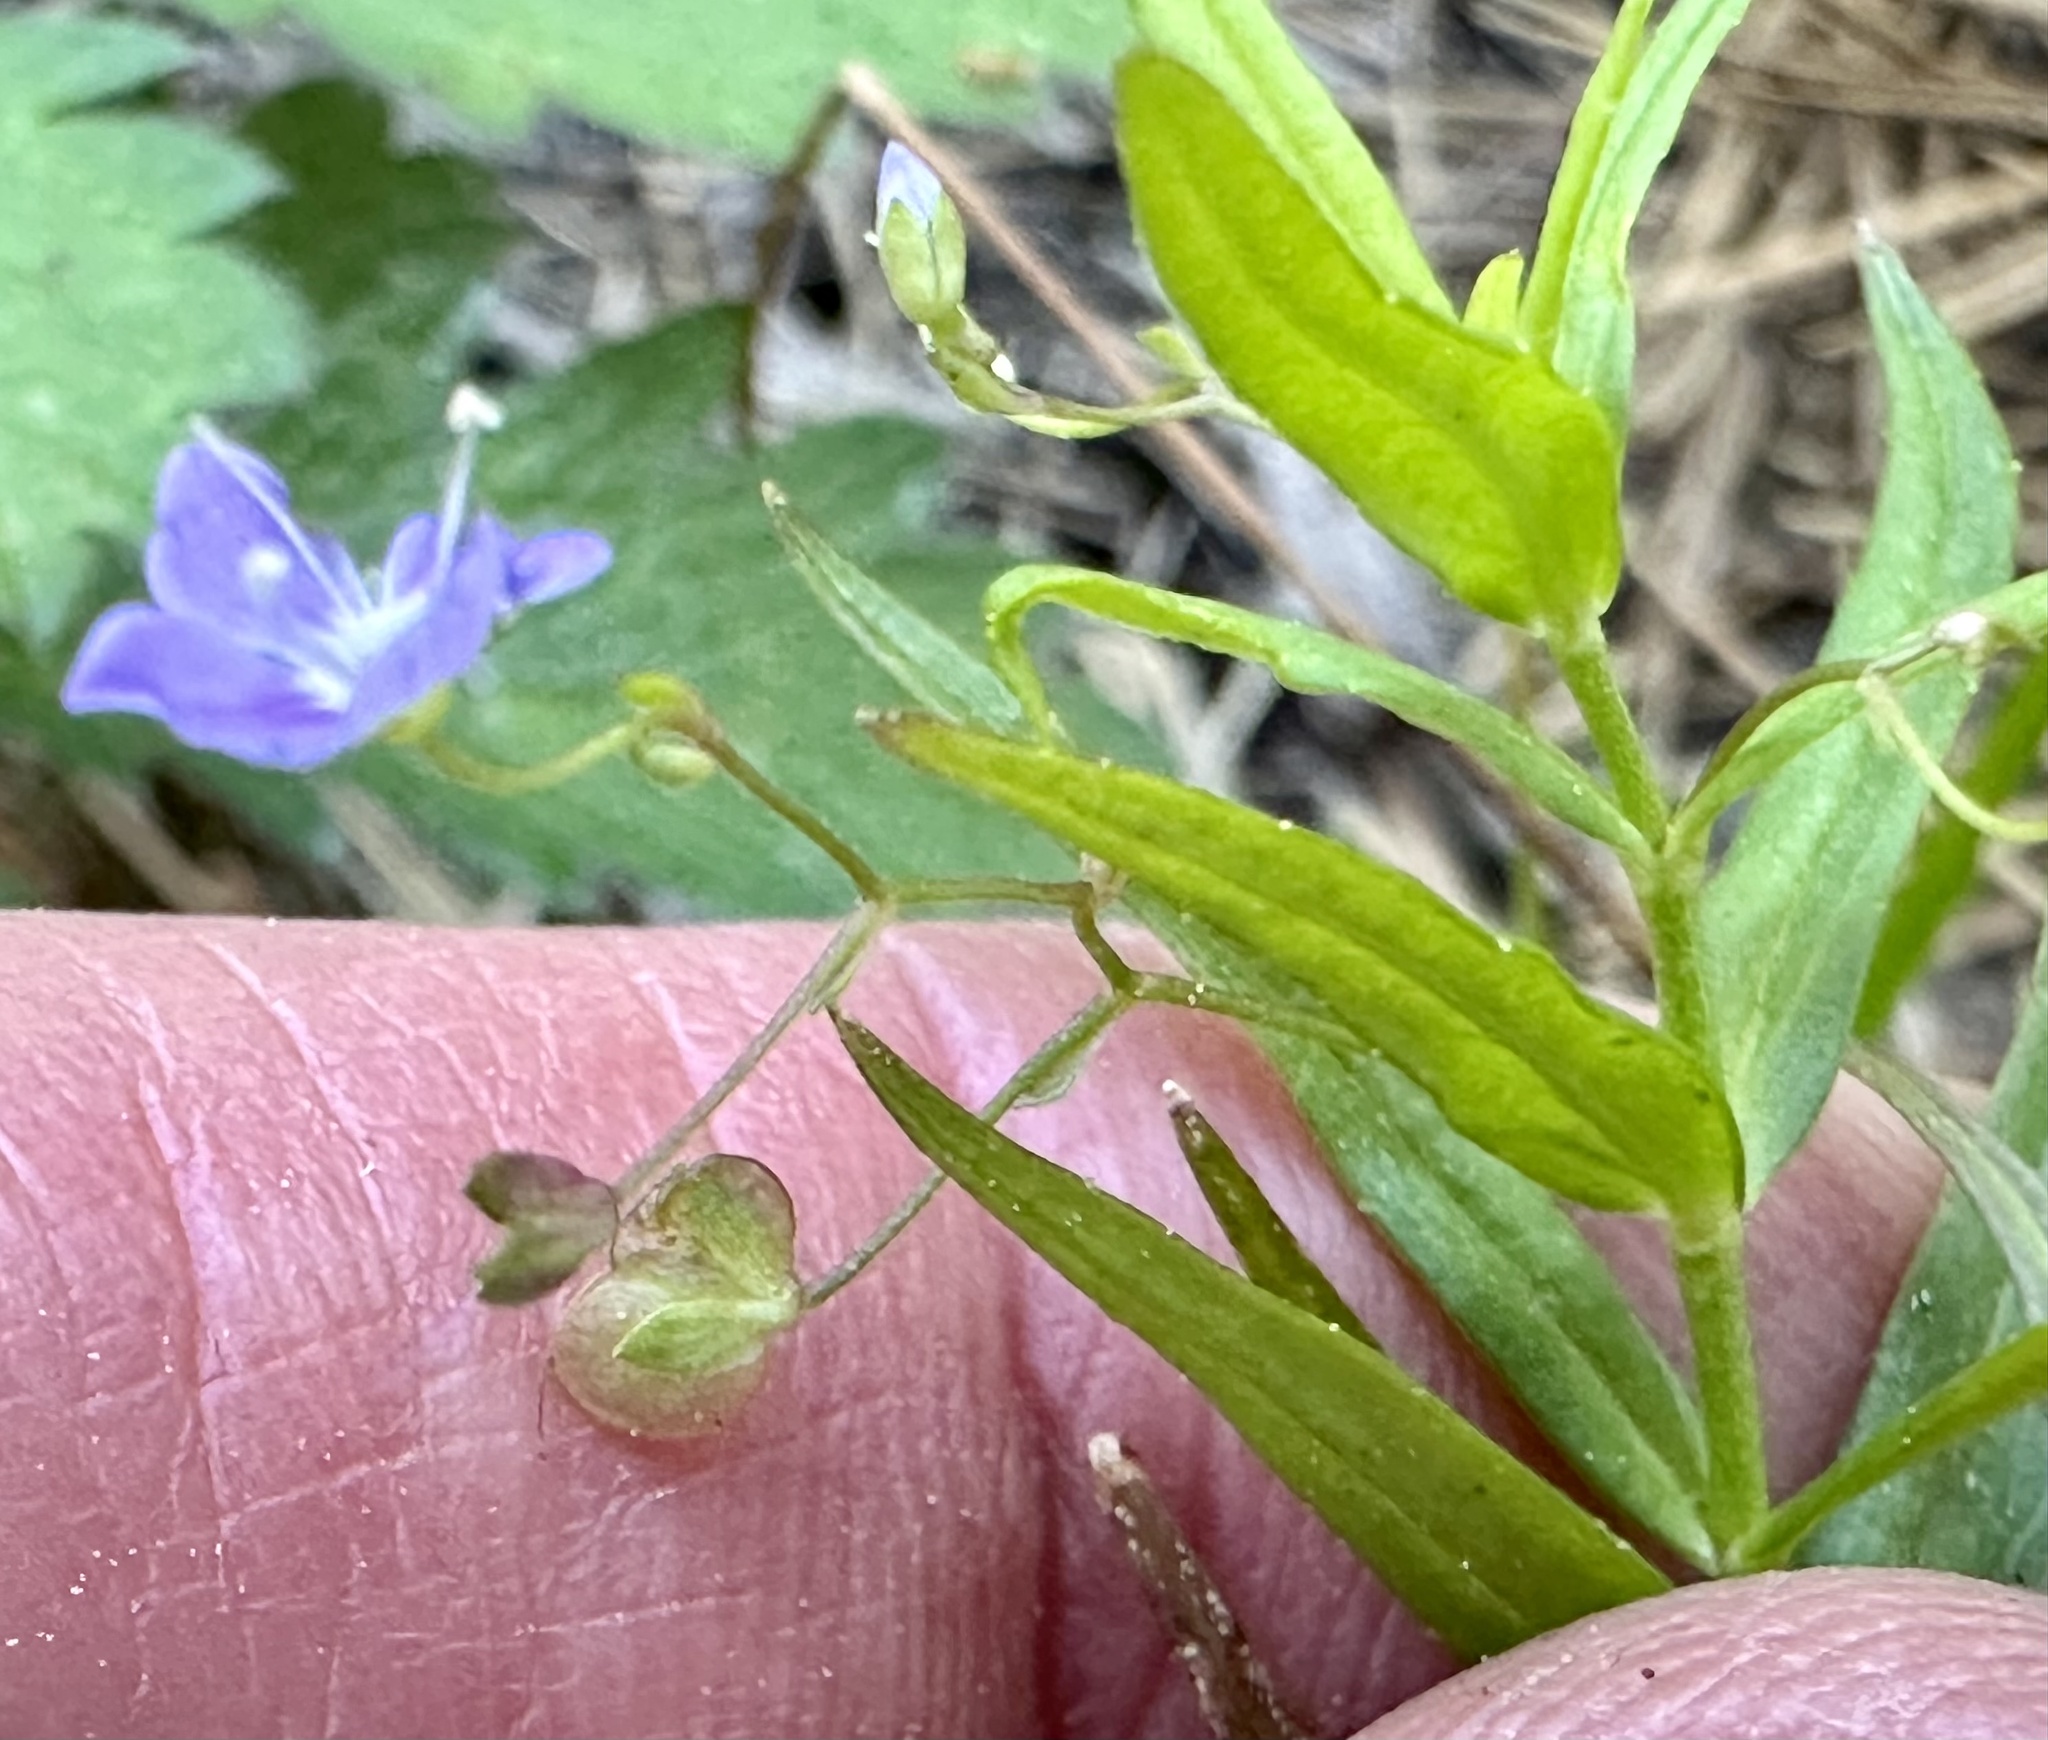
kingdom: Plantae
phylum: Tracheophyta
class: Magnoliopsida
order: Lamiales
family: Plantaginaceae
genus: Veronica
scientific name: Veronica scutellata
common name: Marsh speedwell
